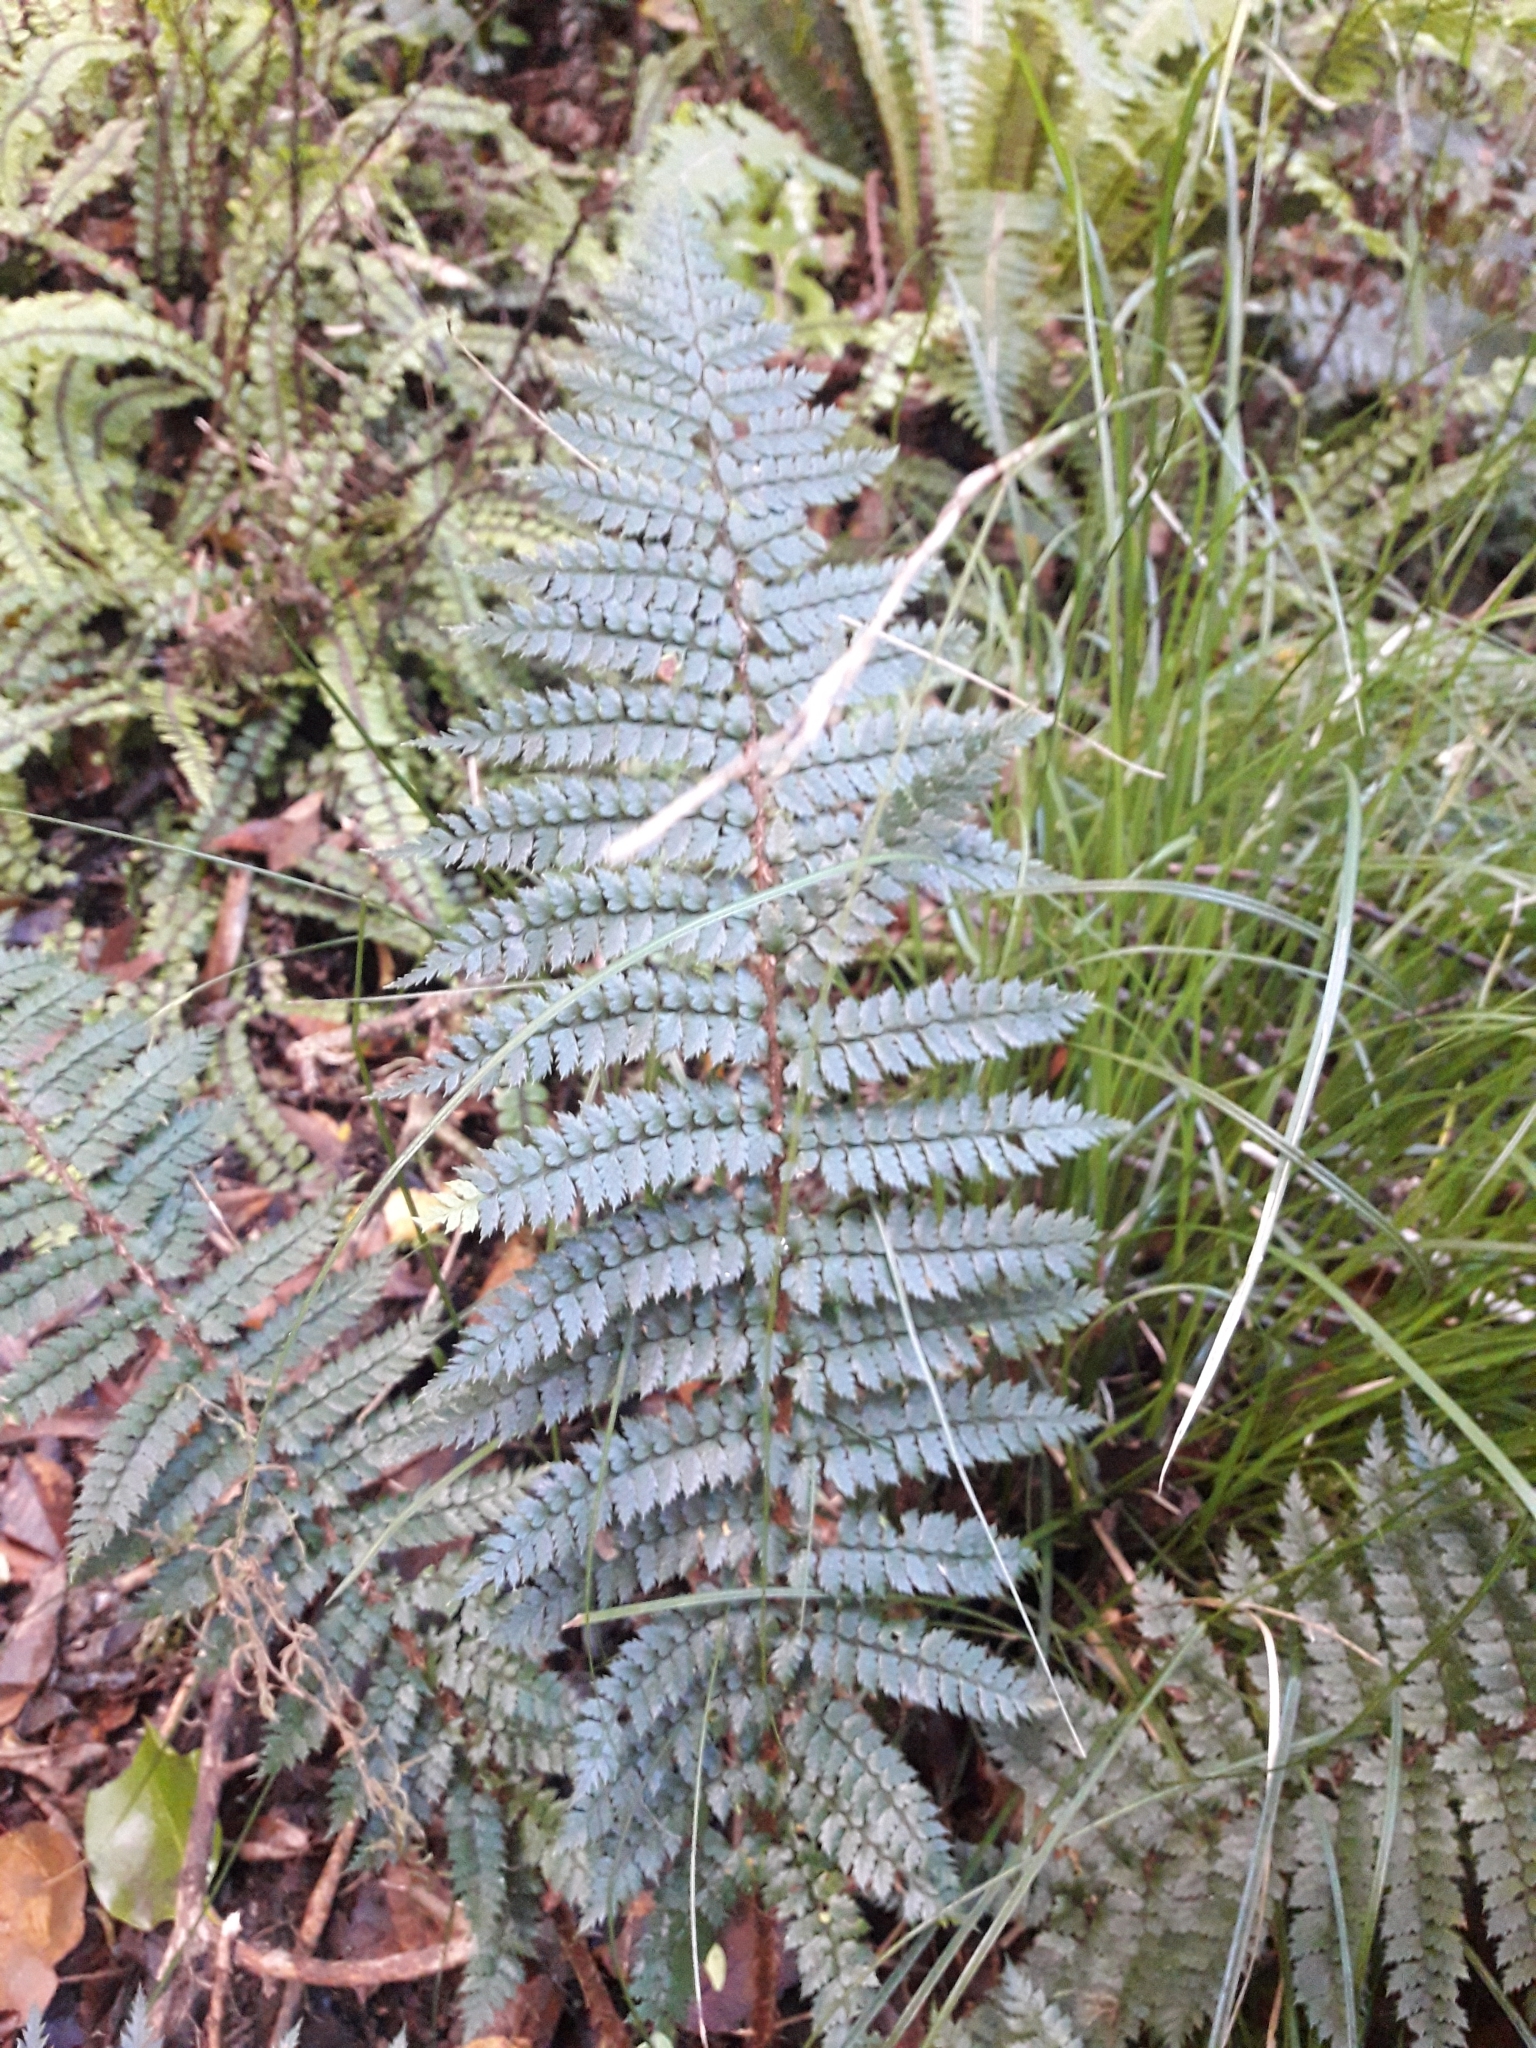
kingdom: Plantae
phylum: Tracheophyta
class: Polypodiopsida
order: Polypodiales
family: Dryopteridaceae
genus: Polystichum
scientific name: Polystichum vestitum
